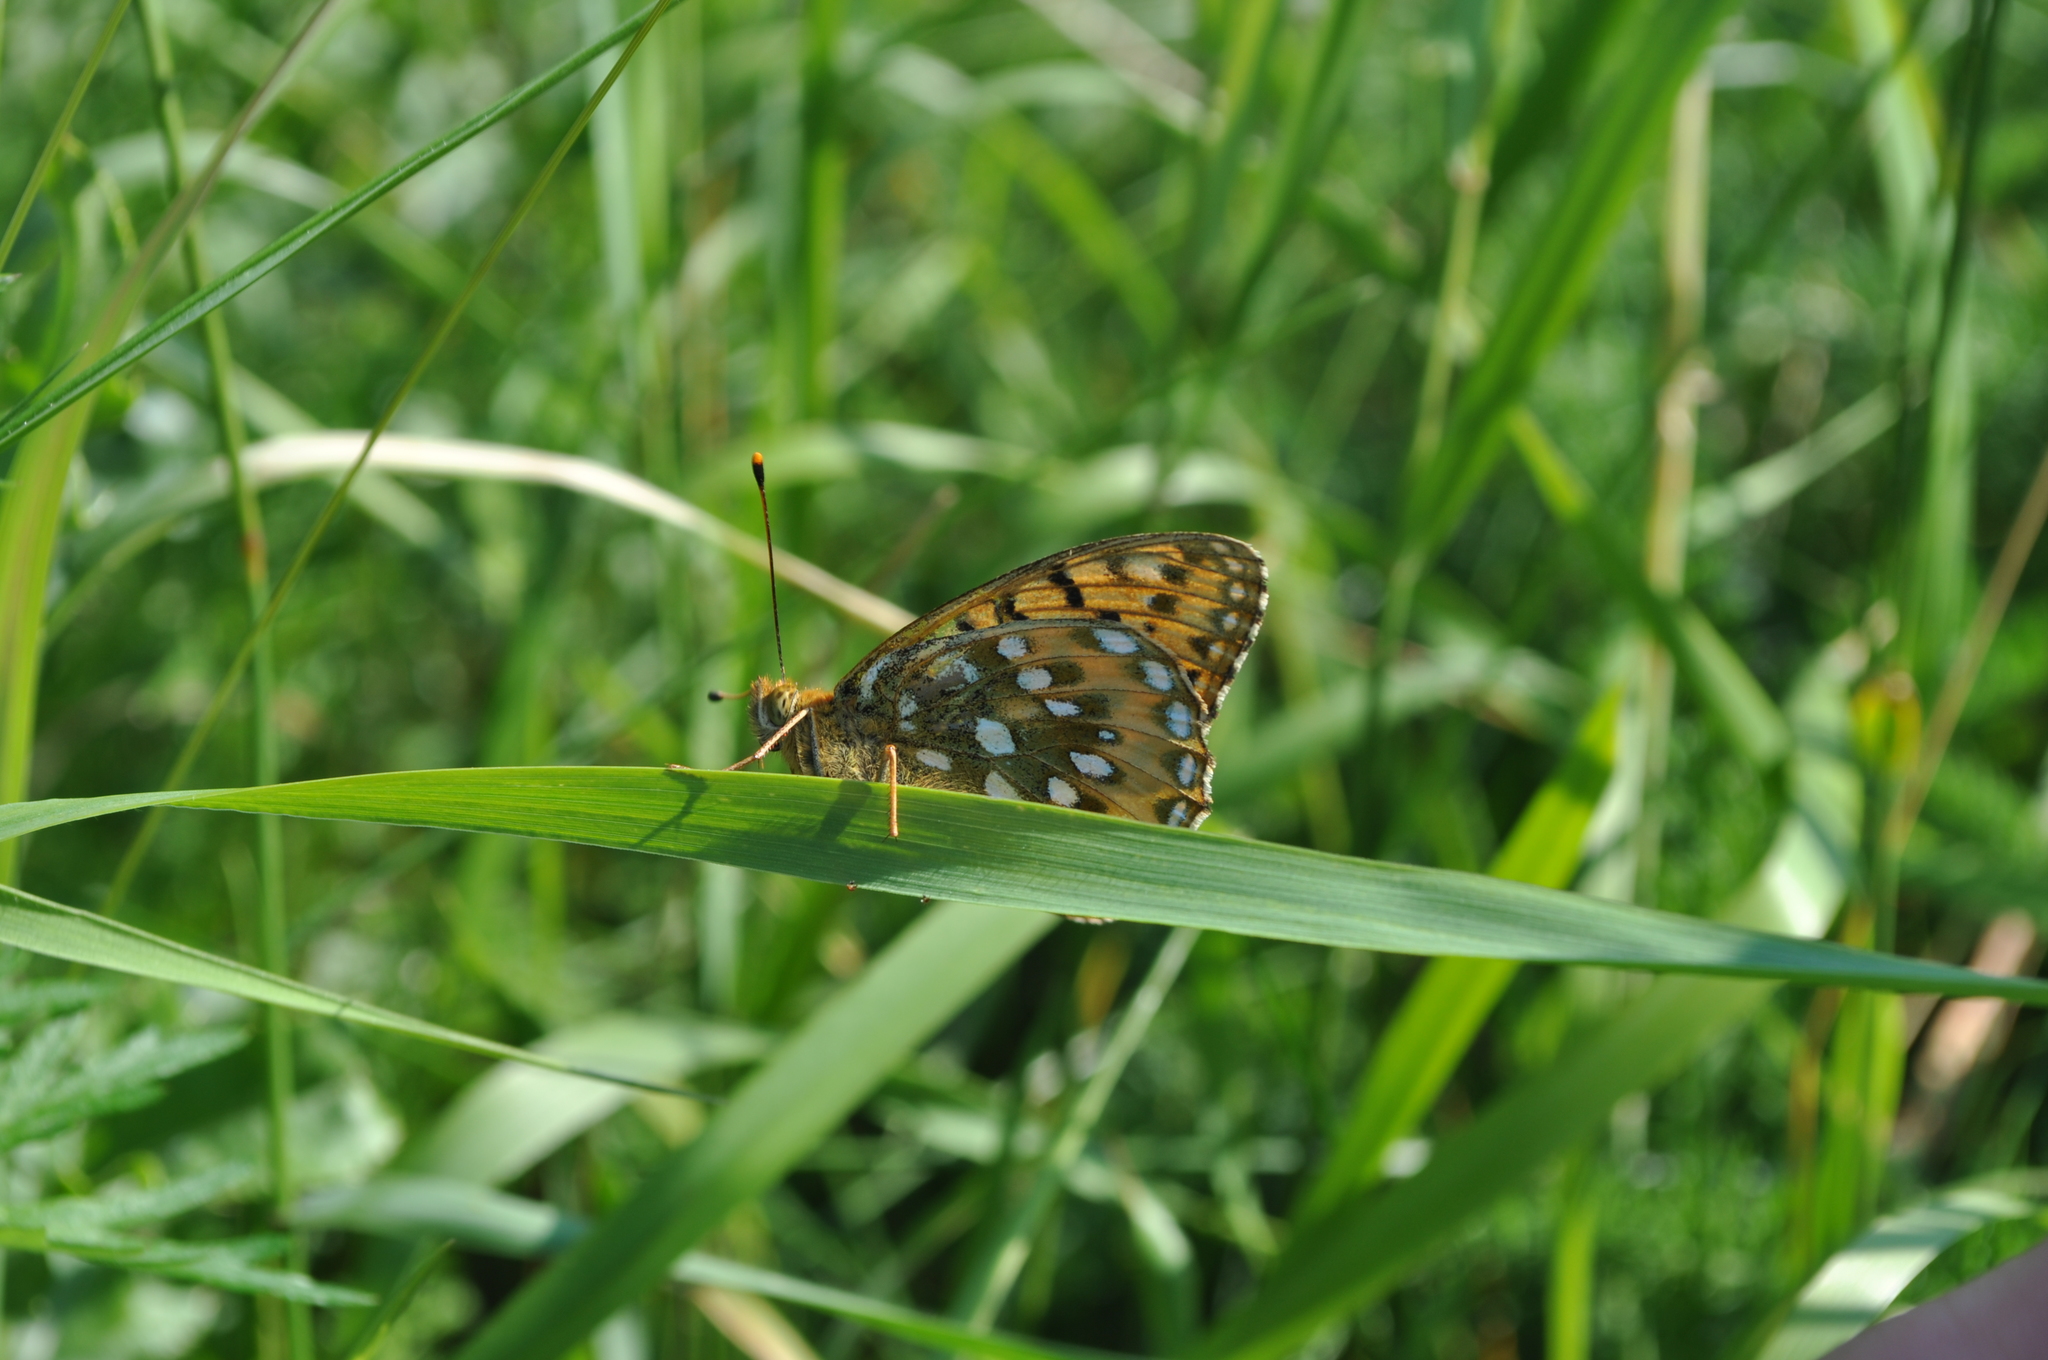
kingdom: Animalia
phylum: Arthropoda
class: Insecta
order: Lepidoptera
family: Nymphalidae
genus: Speyeria
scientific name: Speyeria aglaja
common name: Dark green fritillary
